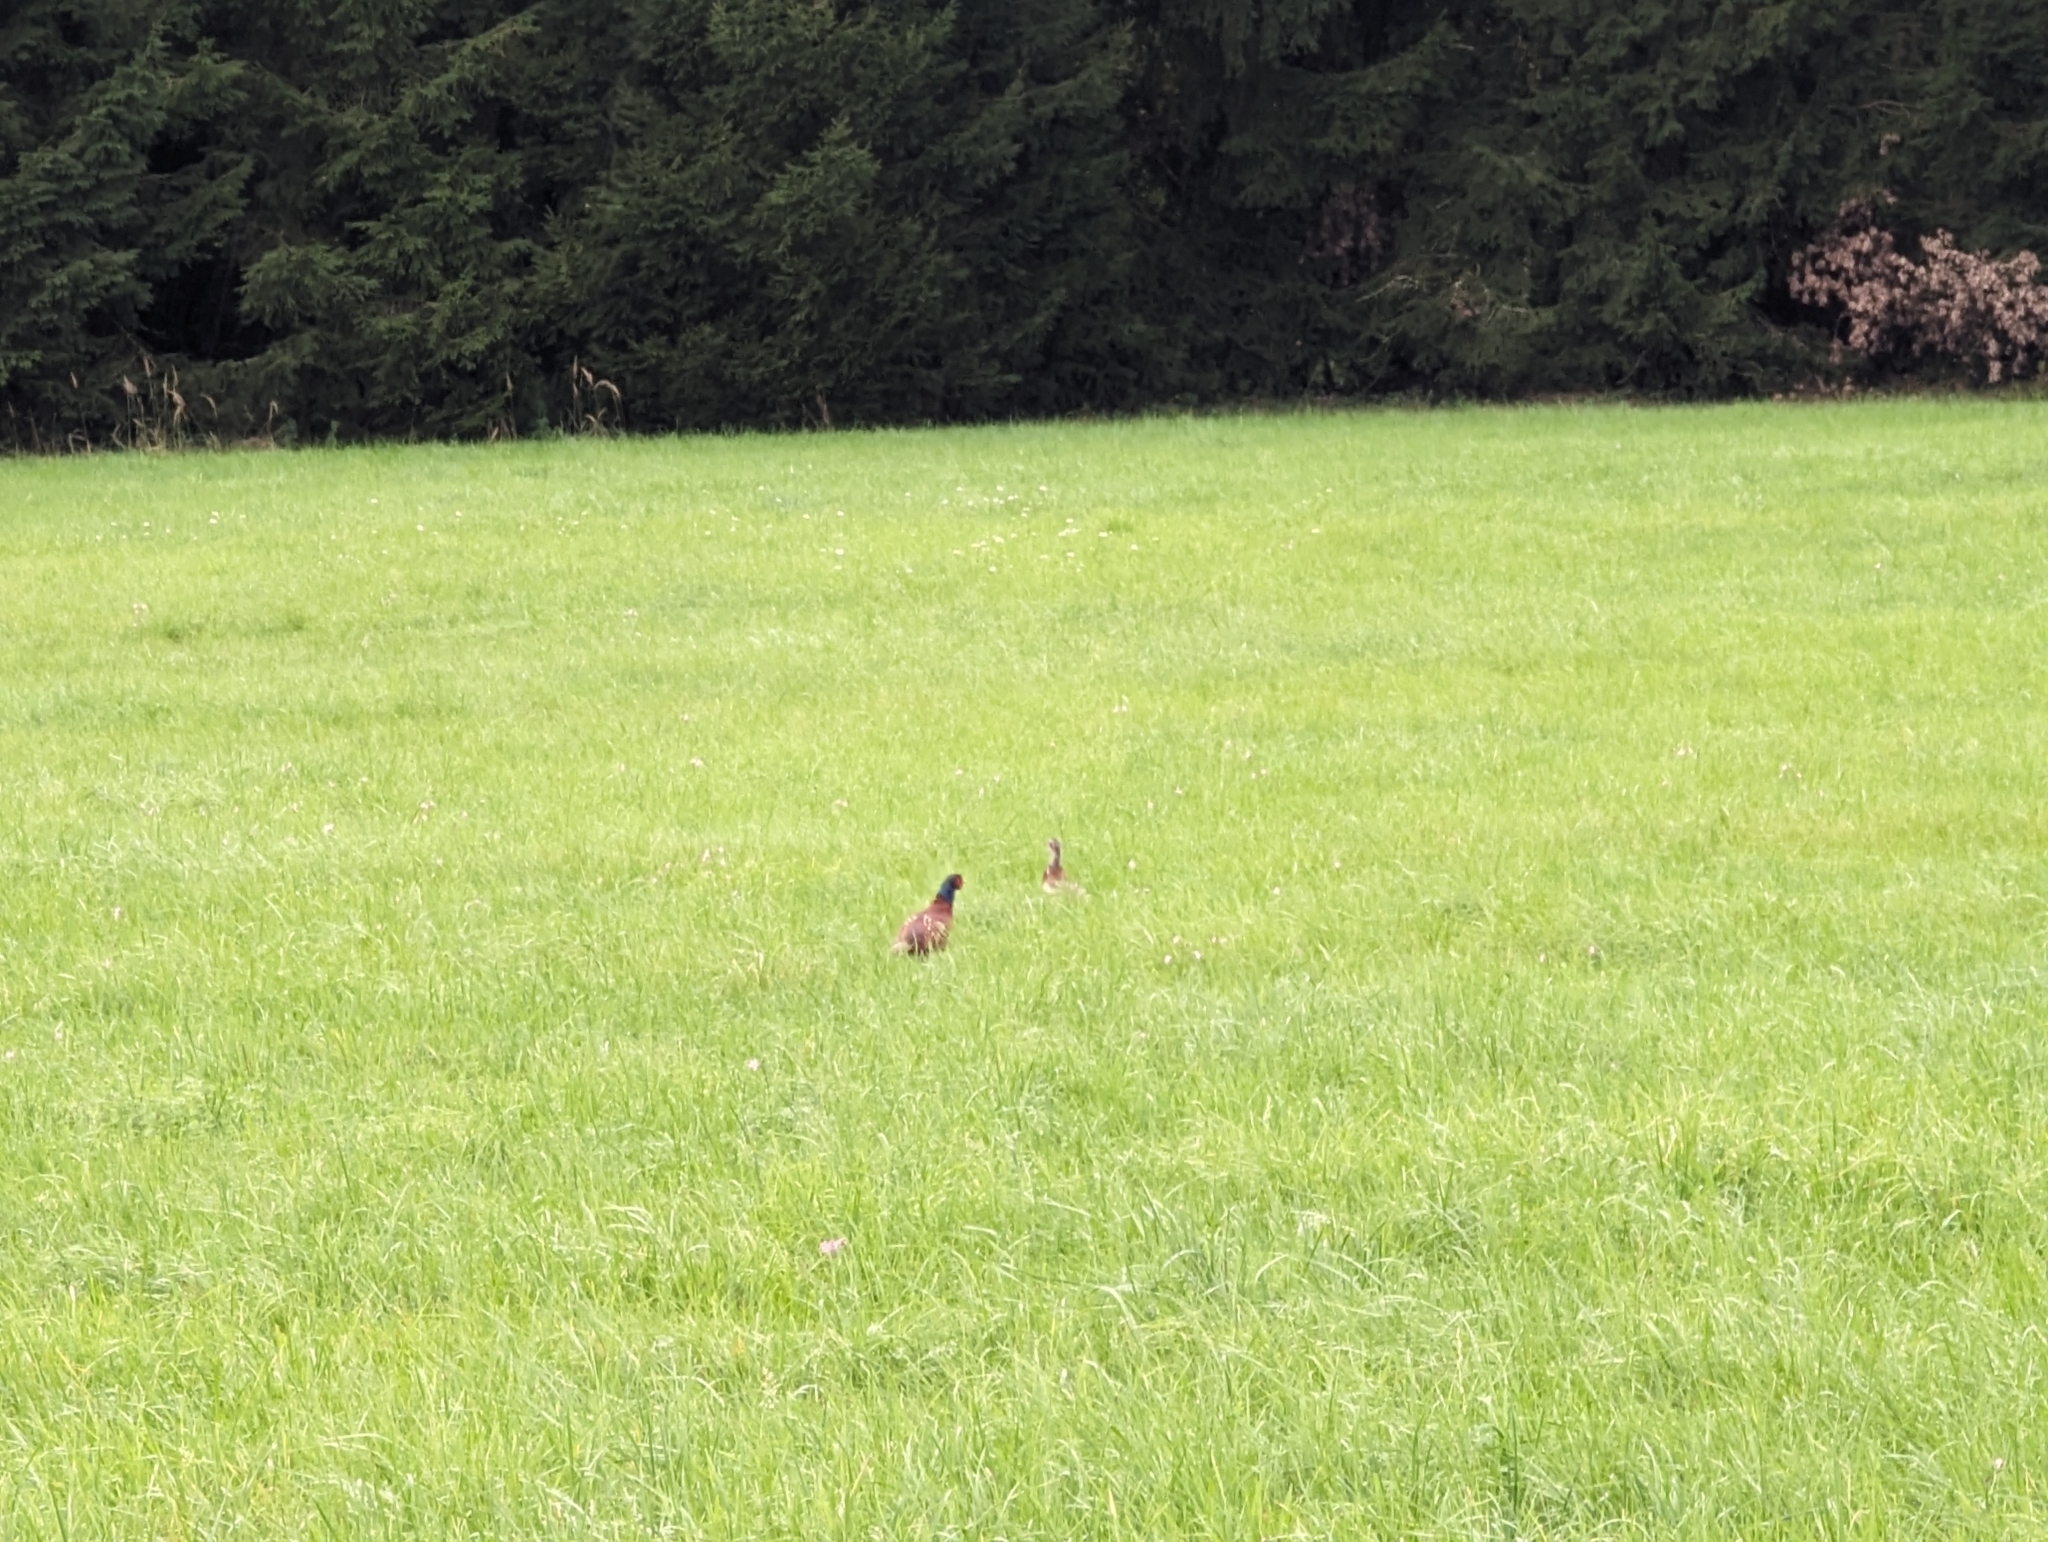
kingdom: Animalia
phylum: Chordata
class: Aves
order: Galliformes
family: Phasianidae
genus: Phasianus
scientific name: Phasianus colchicus
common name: Common pheasant
